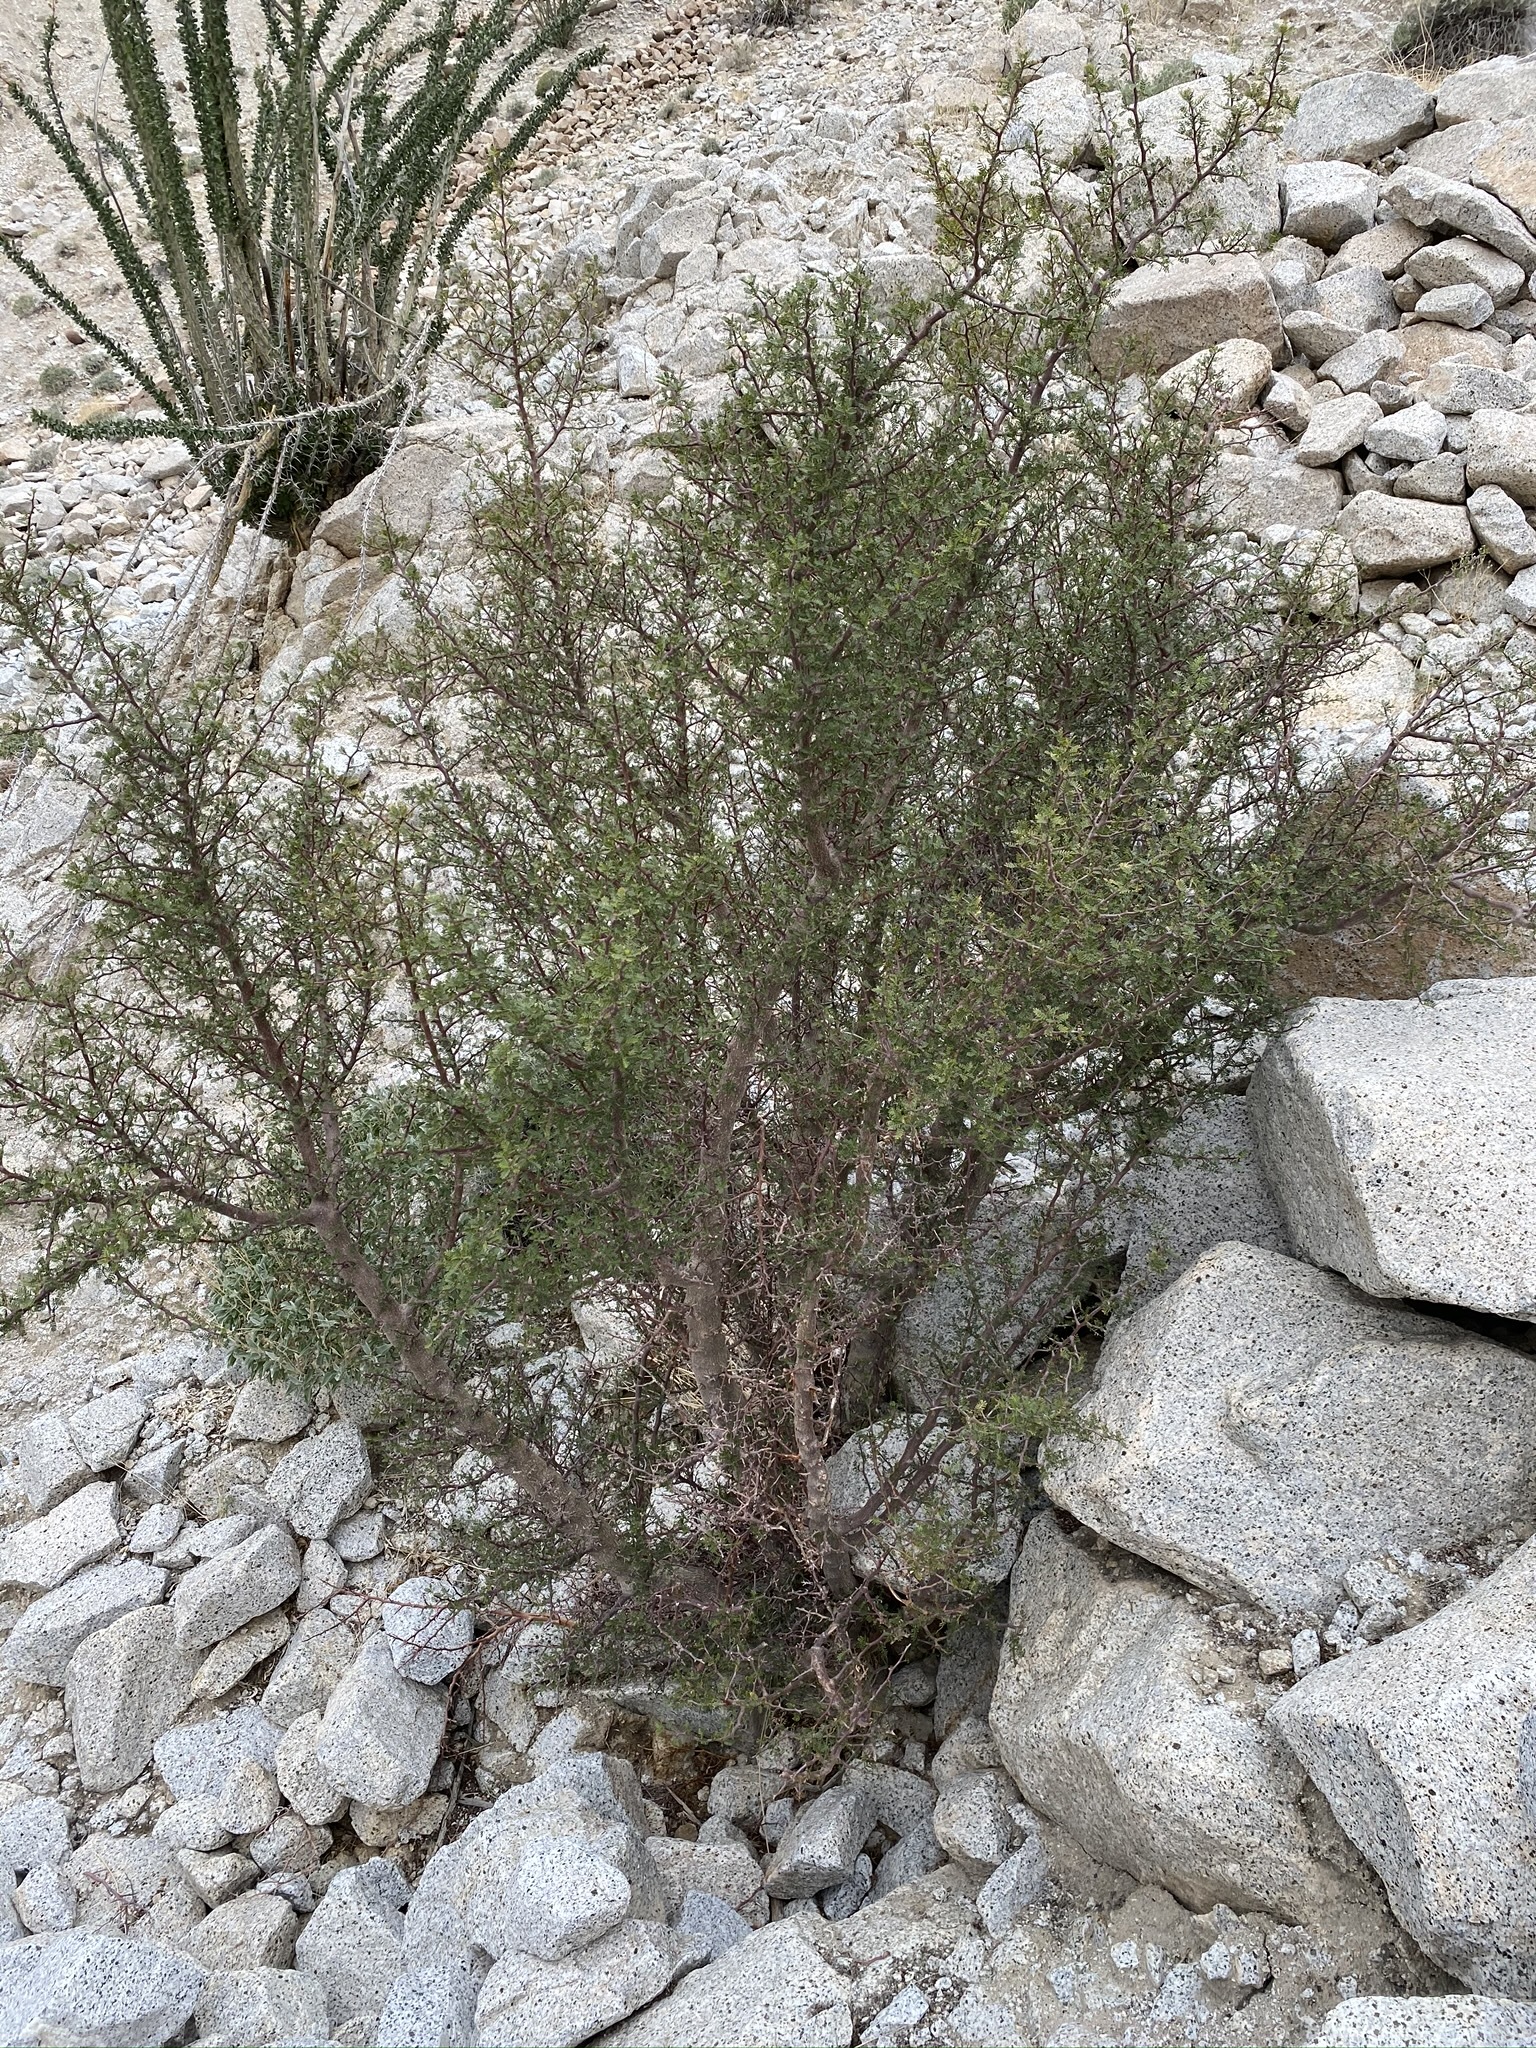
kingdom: Plantae
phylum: Tracheophyta
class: Magnoliopsida
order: Sapindales
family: Burseraceae
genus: Bursera
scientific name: Bursera microphylla
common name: Elephant tree
